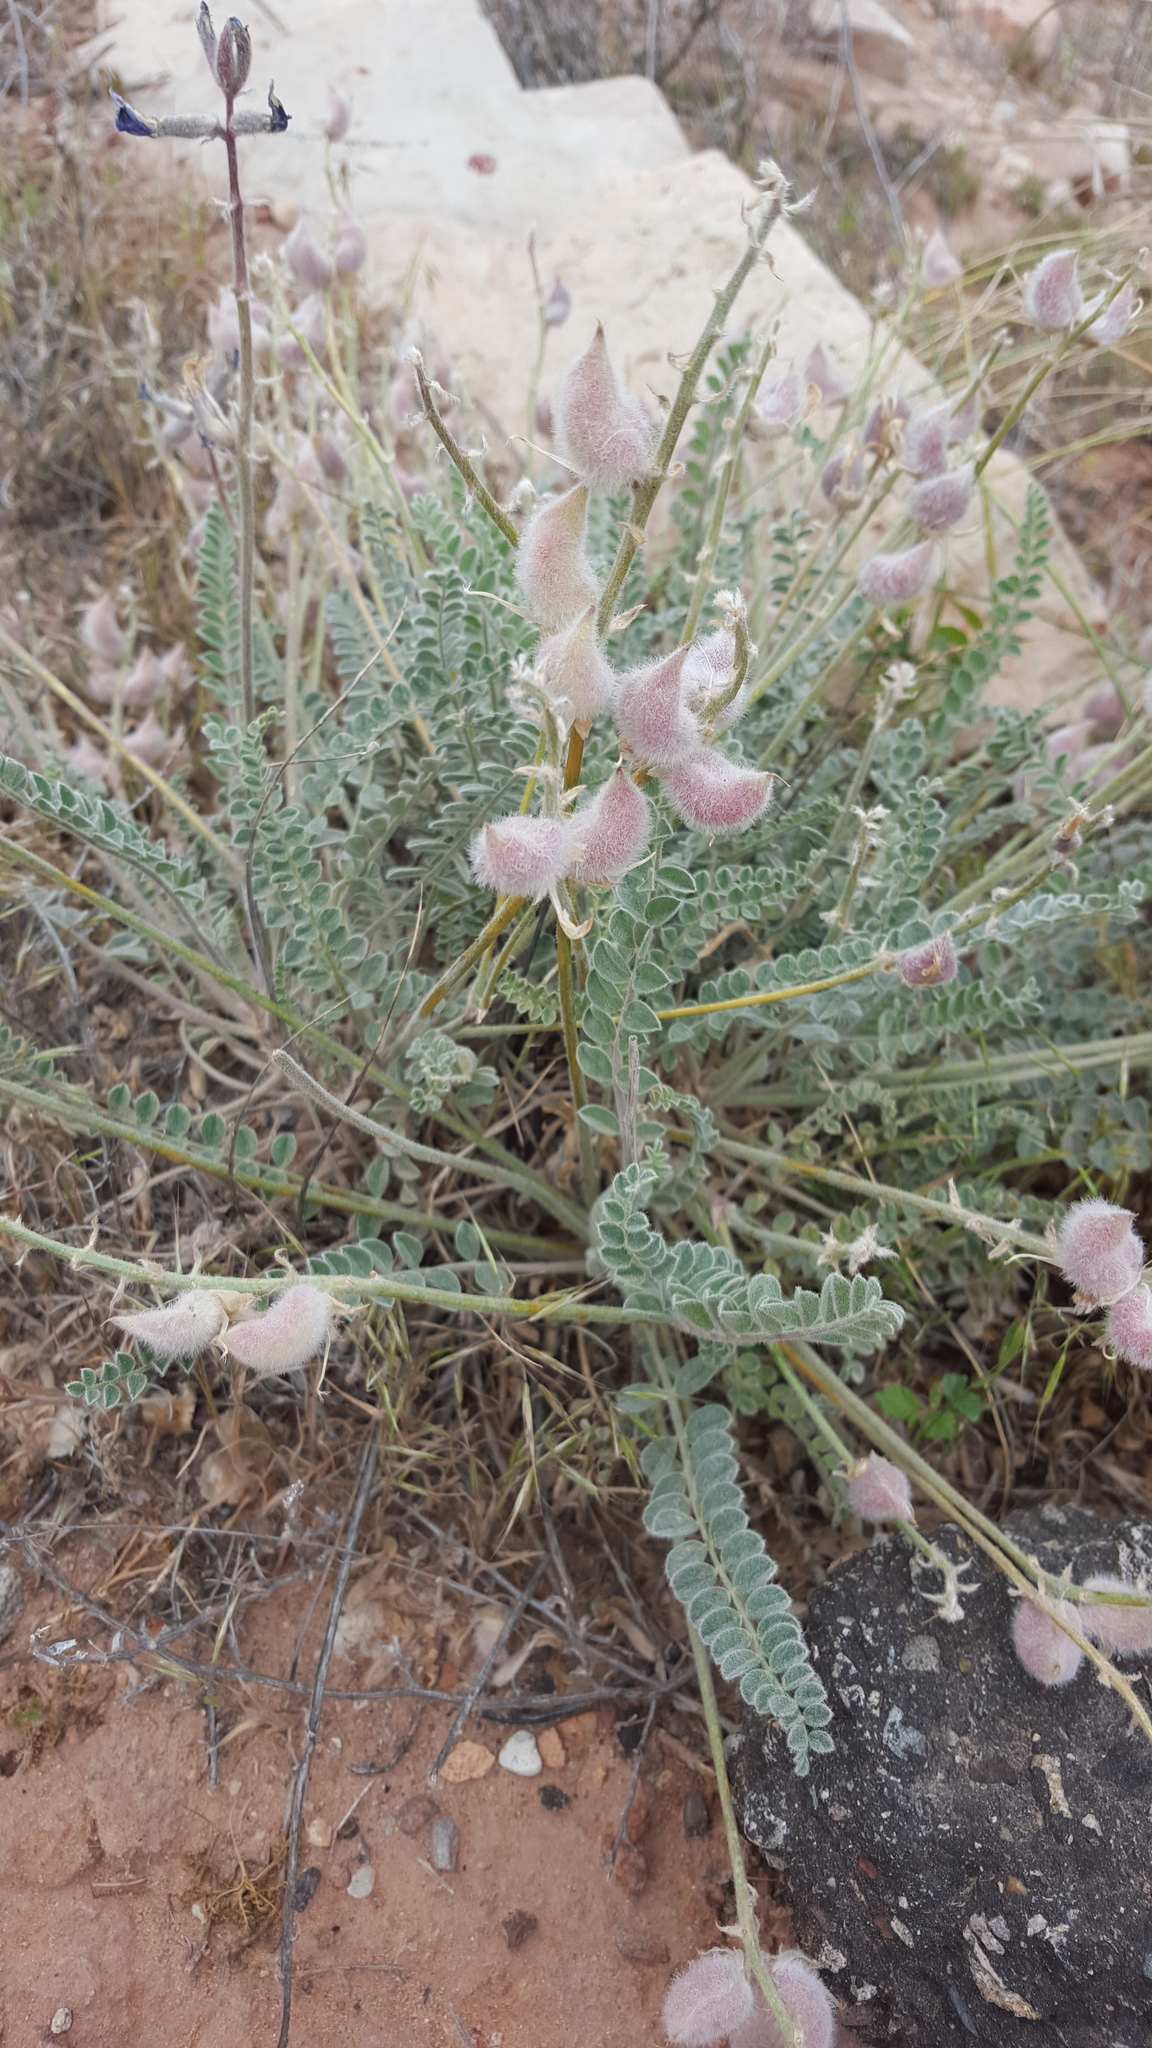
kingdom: Plantae
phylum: Tracheophyta
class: Magnoliopsida
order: Fabales
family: Fabaceae
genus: Astragalus
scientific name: Astragalus mollissimus
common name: Woolly locoweed
